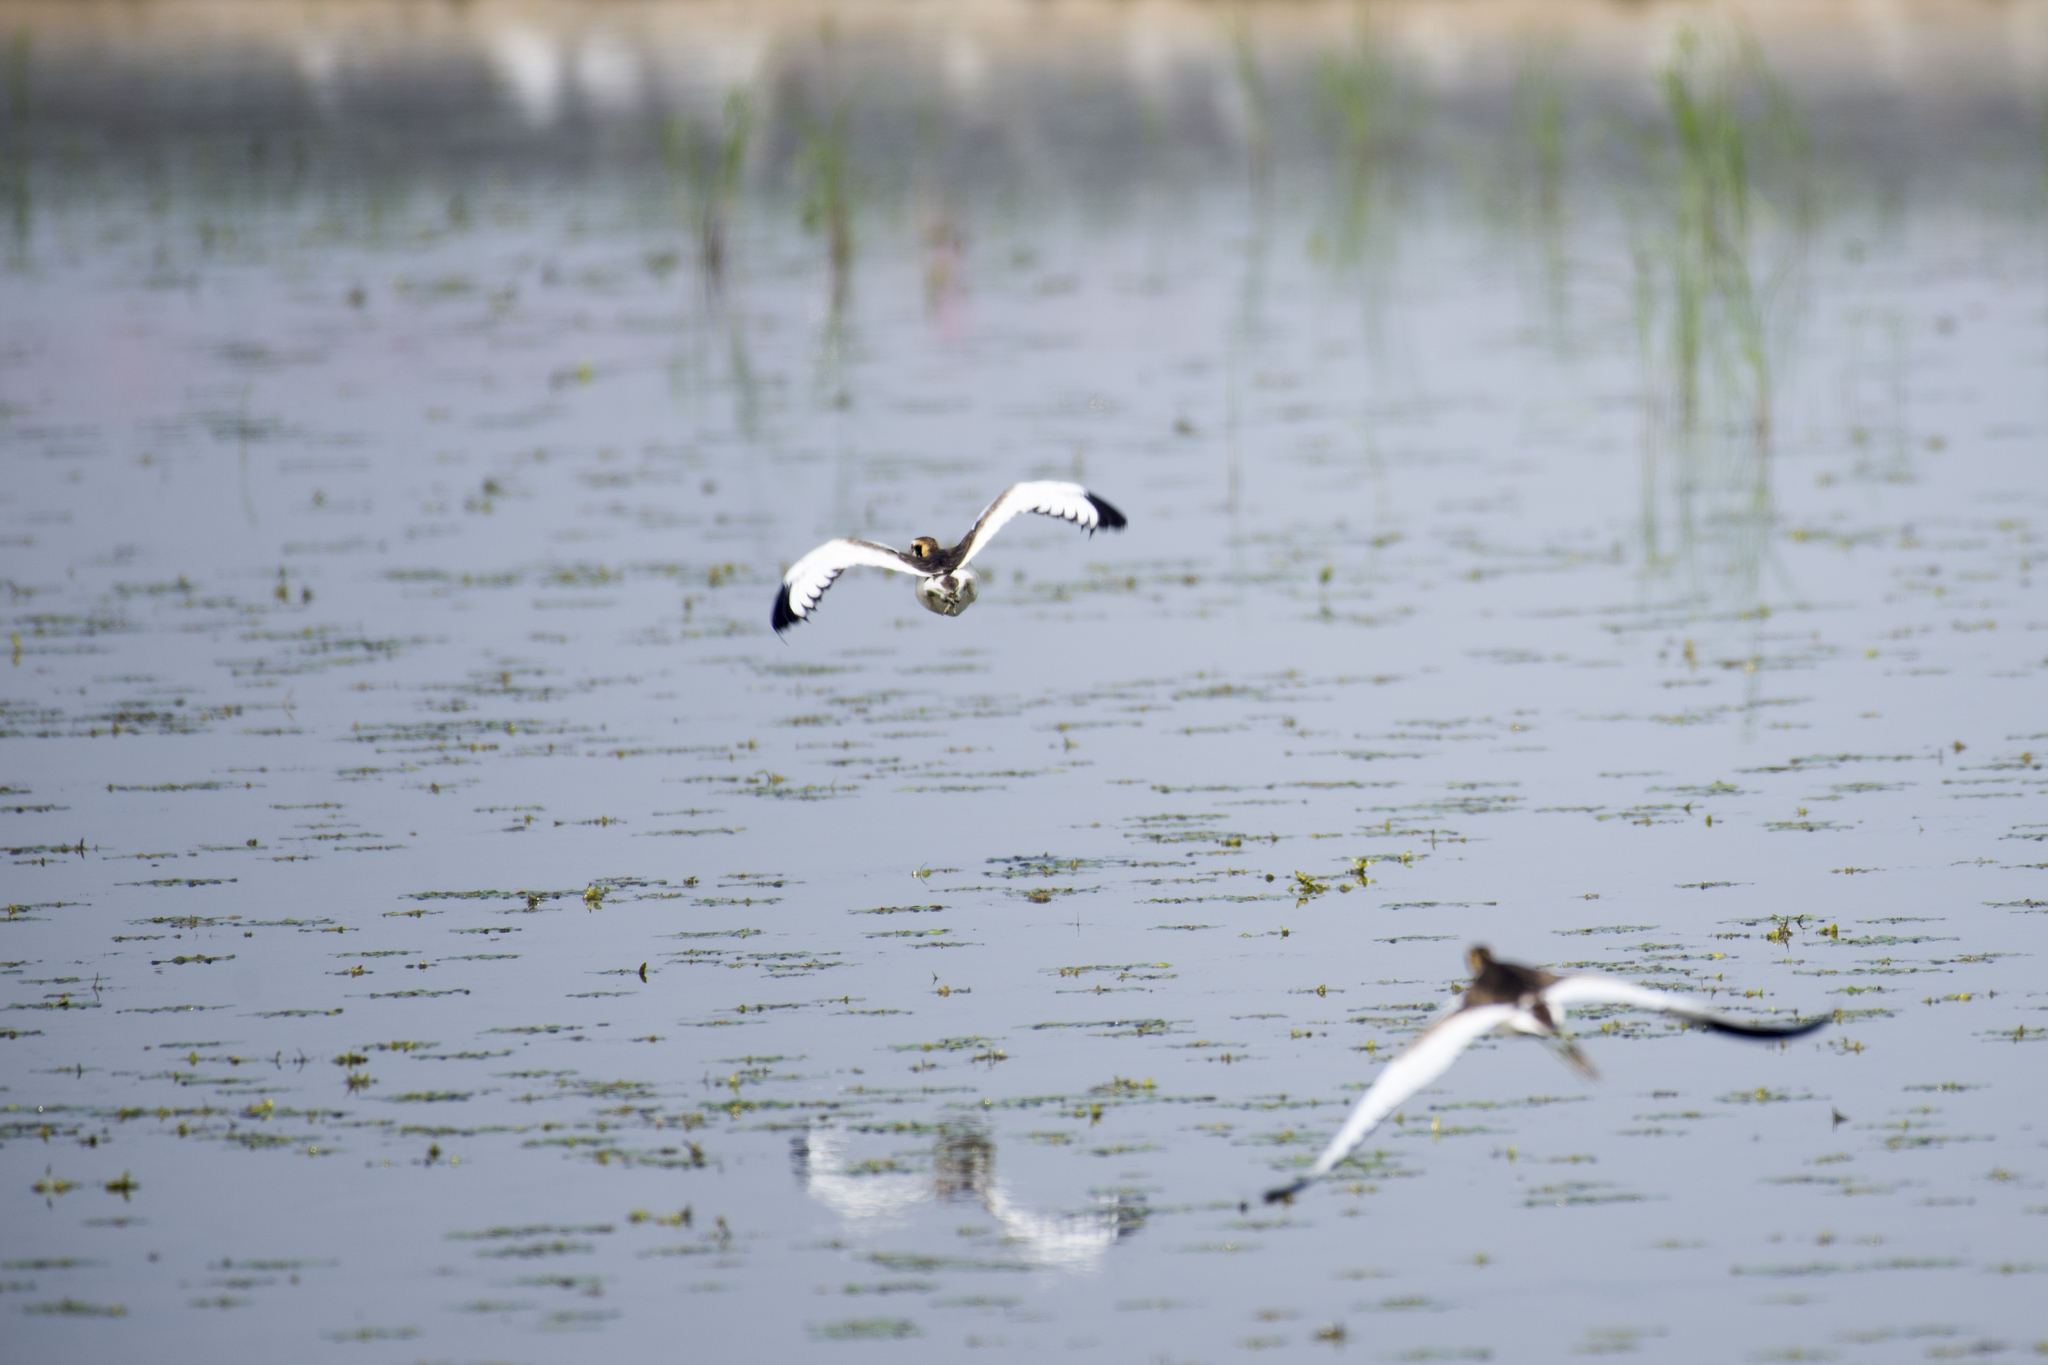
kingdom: Animalia
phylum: Chordata
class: Aves
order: Charadriiformes
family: Jacanidae
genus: Hydrophasianus
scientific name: Hydrophasianus chirurgus
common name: Pheasant-tailed jacana
